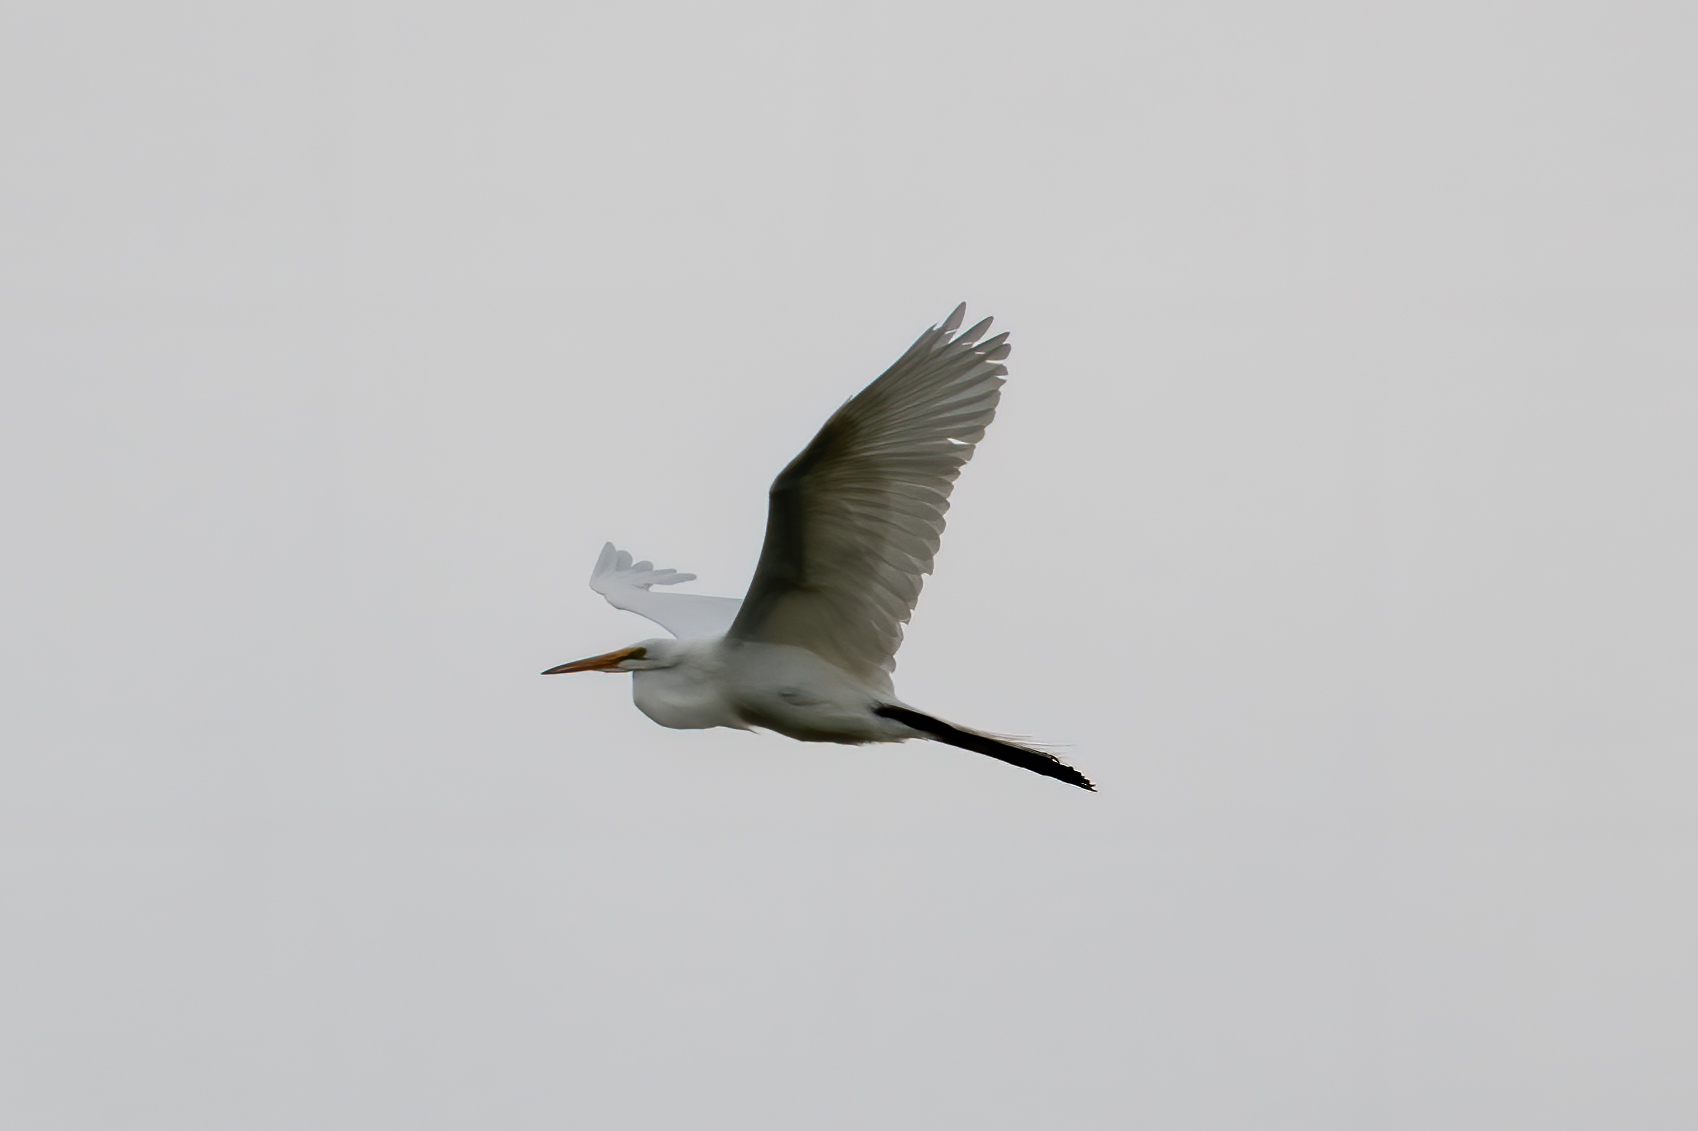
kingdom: Animalia
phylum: Chordata
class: Aves
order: Pelecaniformes
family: Ardeidae
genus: Ardea
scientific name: Ardea alba
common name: Great egret
